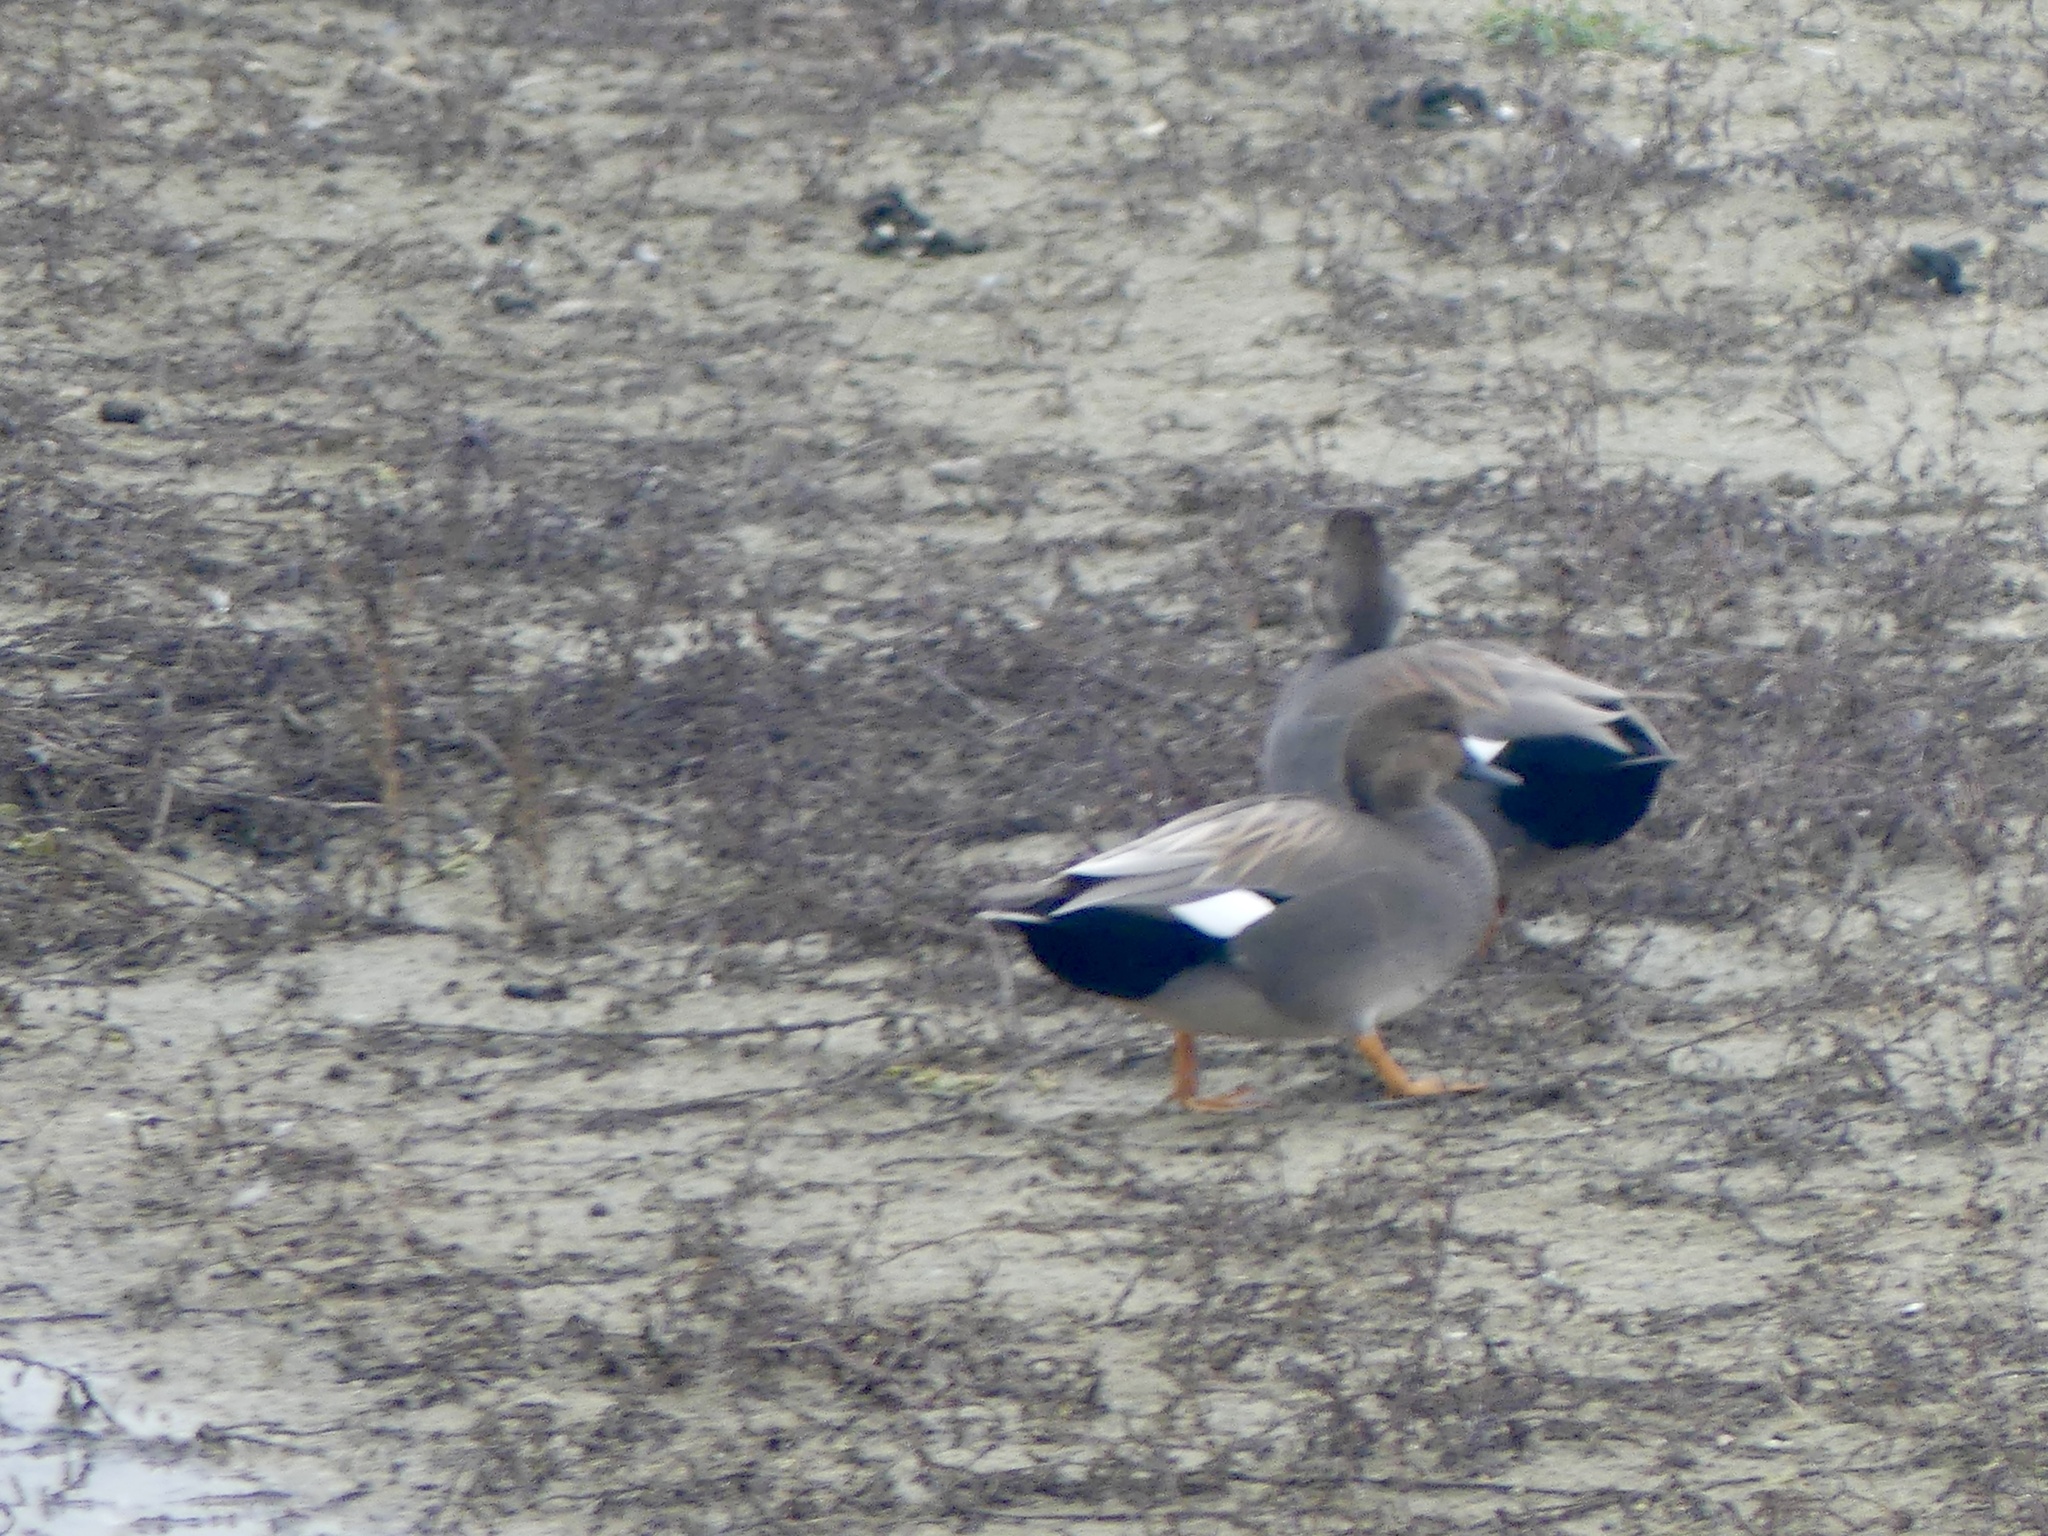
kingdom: Animalia
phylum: Chordata
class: Aves
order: Anseriformes
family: Anatidae
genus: Mareca
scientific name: Mareca strepera
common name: Gadwall
